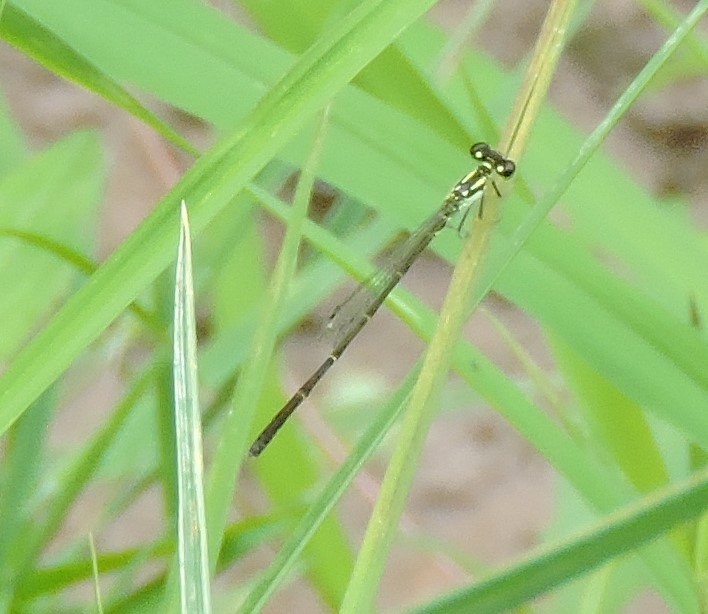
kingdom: Animalia
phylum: Arthropoda
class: Insecta
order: Odonata
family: Coenagrionidae
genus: Ischnura
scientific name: Ischnura posita
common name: Fragile forktail
